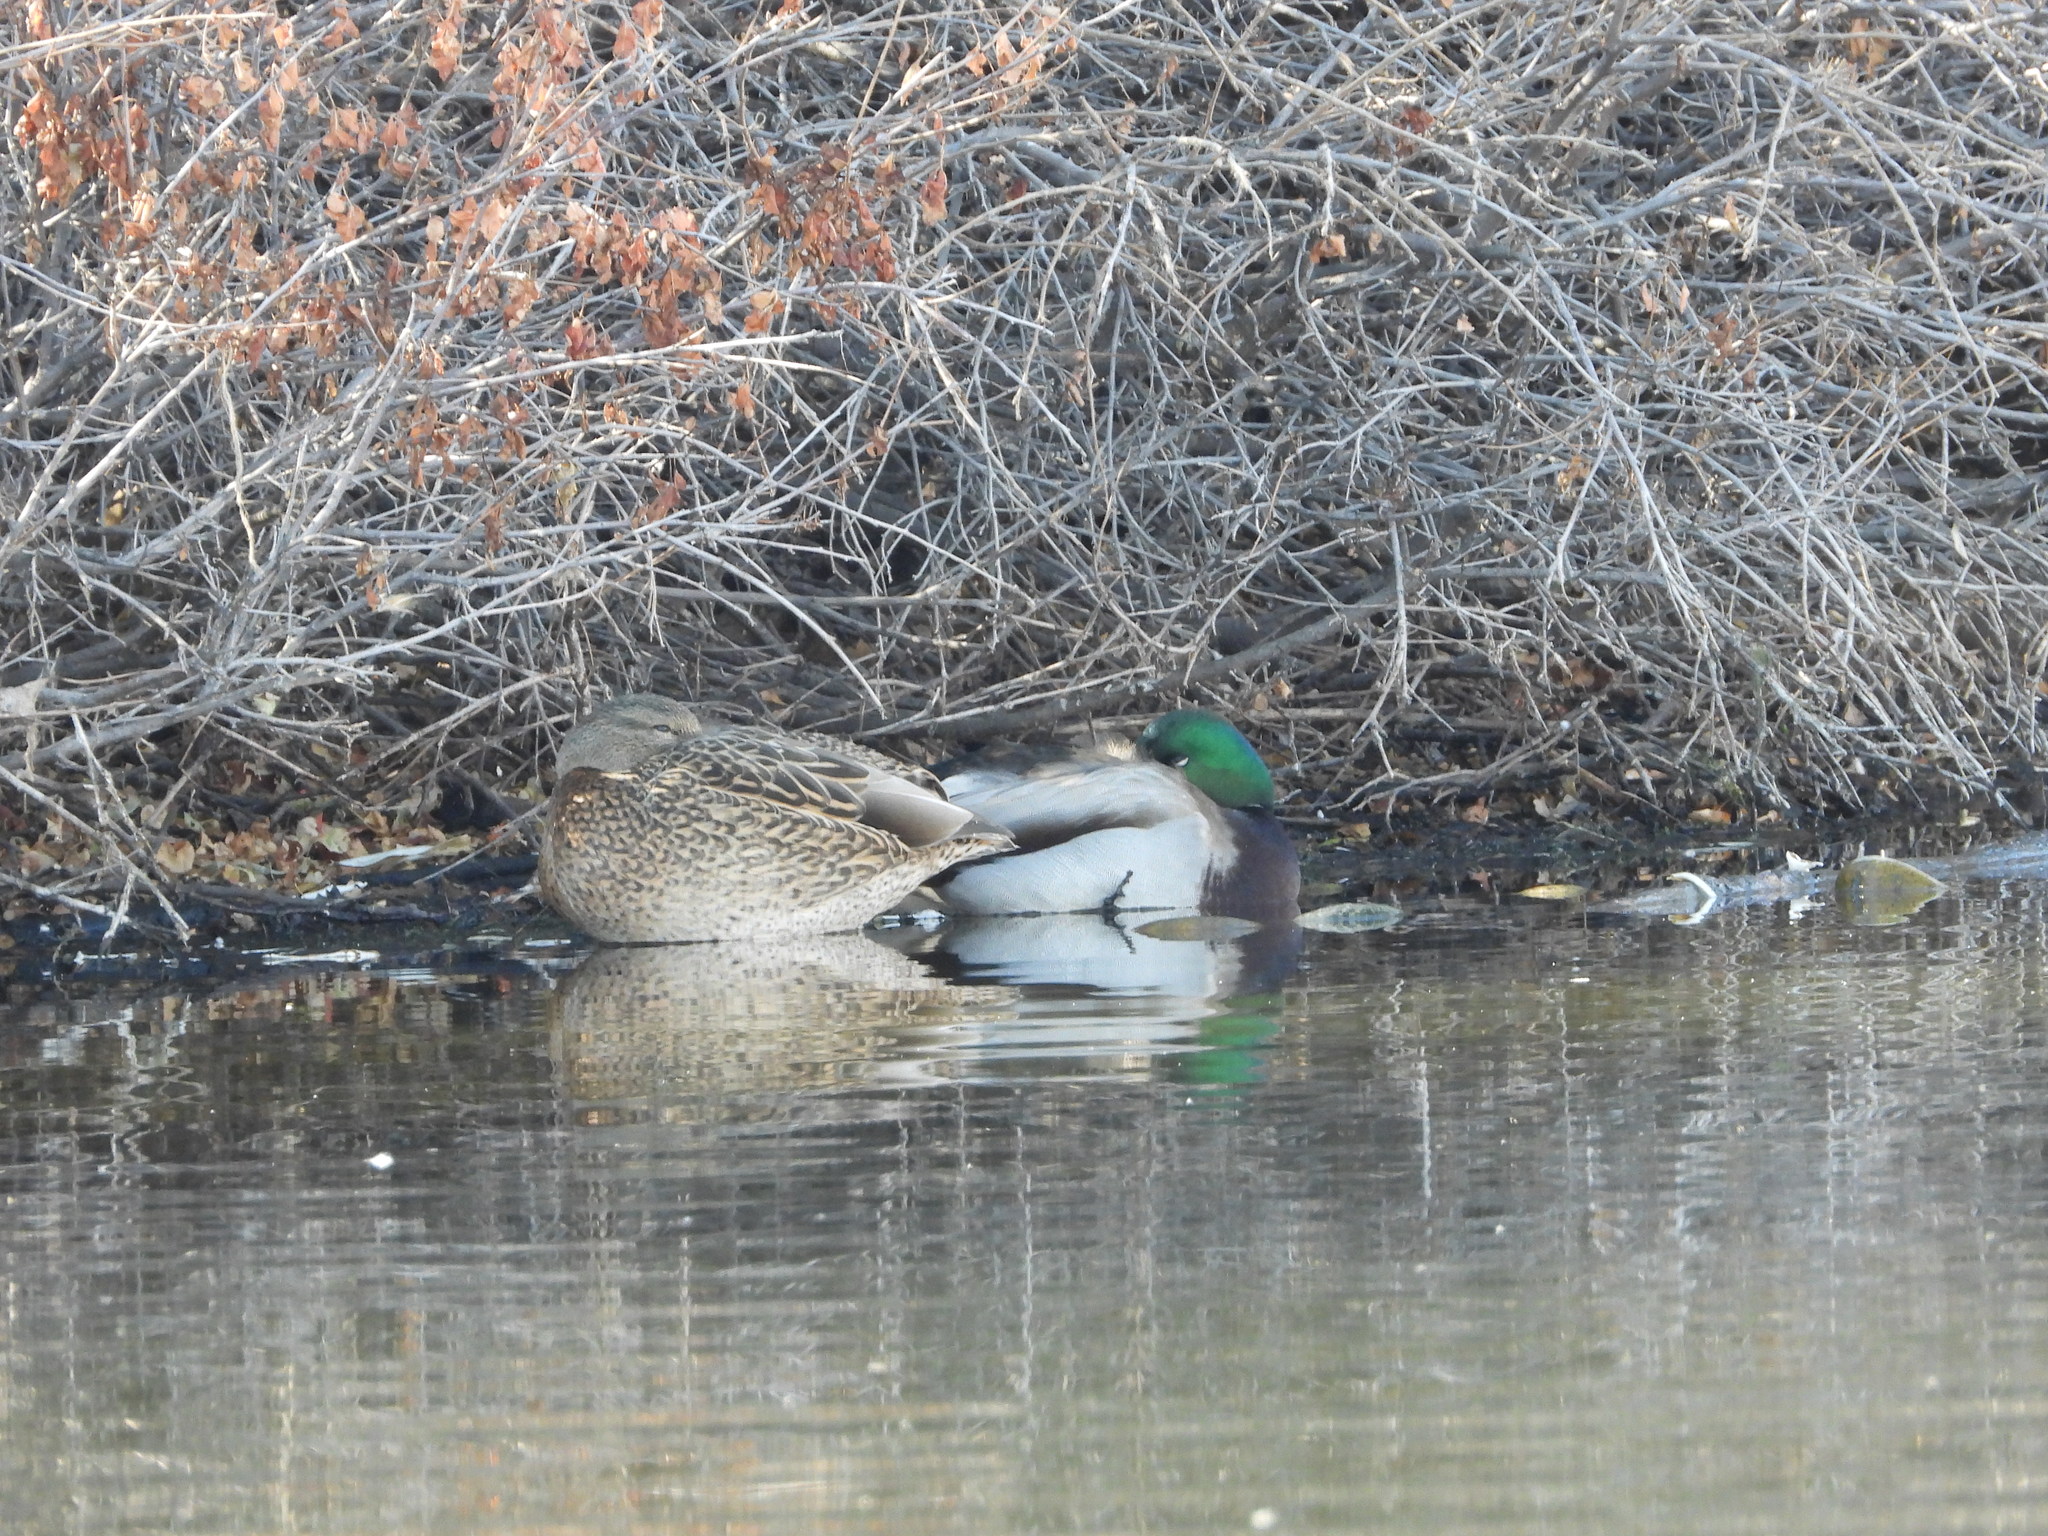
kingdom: Animalia
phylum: Chordata
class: Aves
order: Anseriformes
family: Anatidae
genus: Anas
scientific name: Anas platyrhynchos
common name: Mallard
